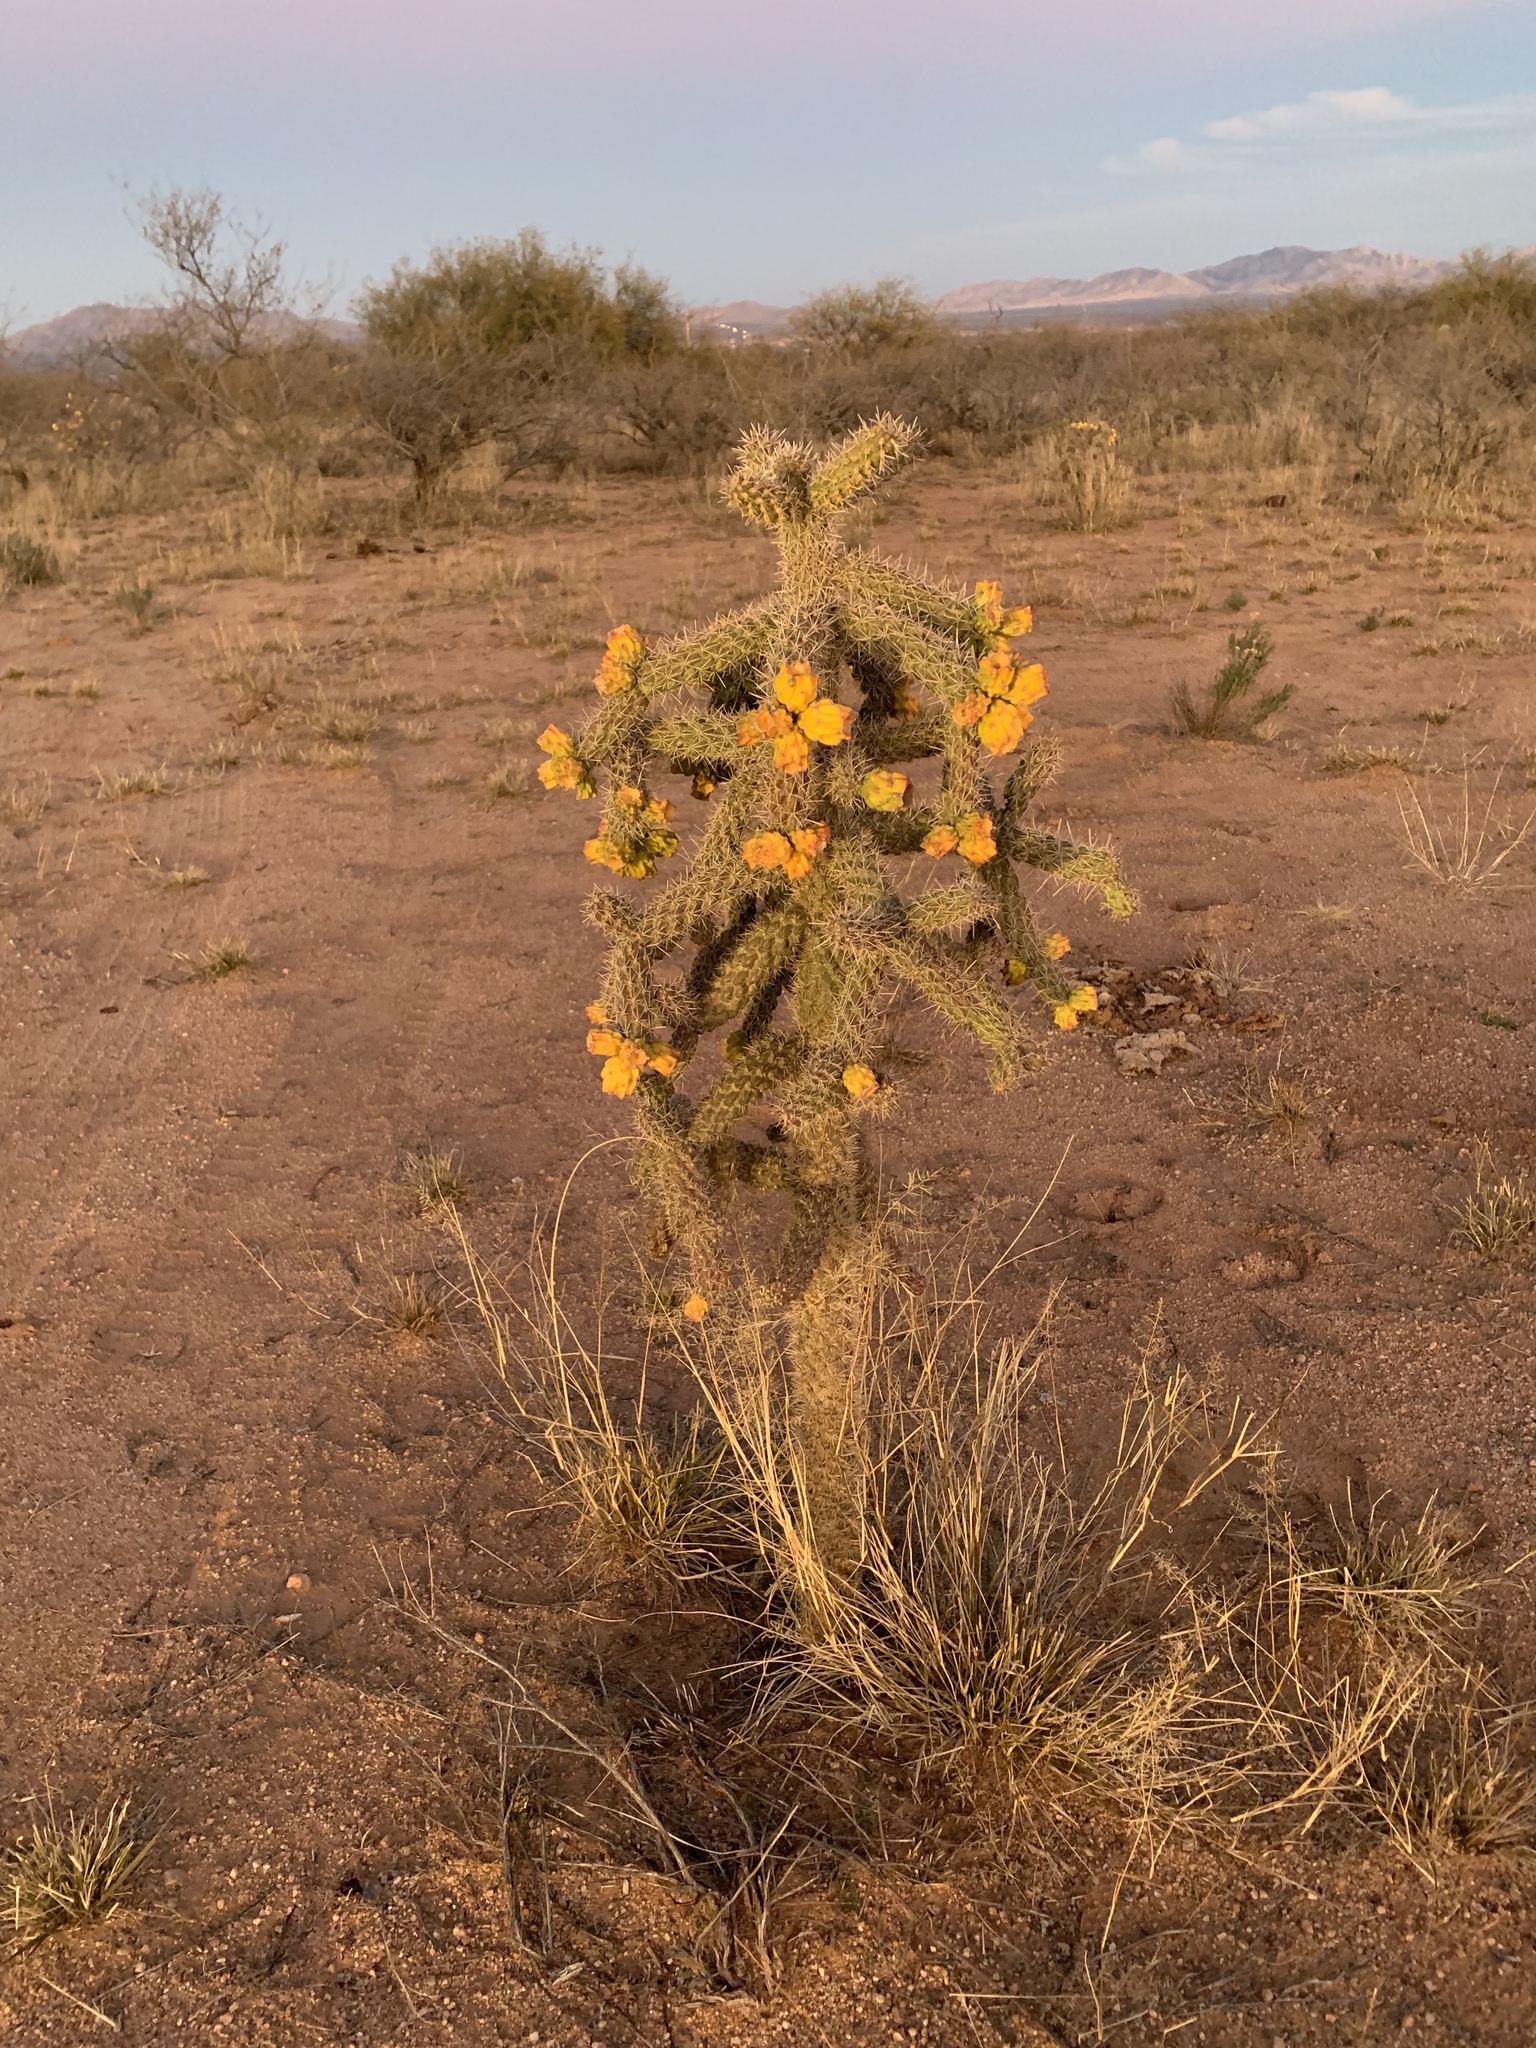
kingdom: Plantae
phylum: Tracheophyta
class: Magnoliopsida
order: Caryophyllales
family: Cactaceae
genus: Cylindropuntia
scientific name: Cylindropuntia imbricata
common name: Candelabrum cactus
